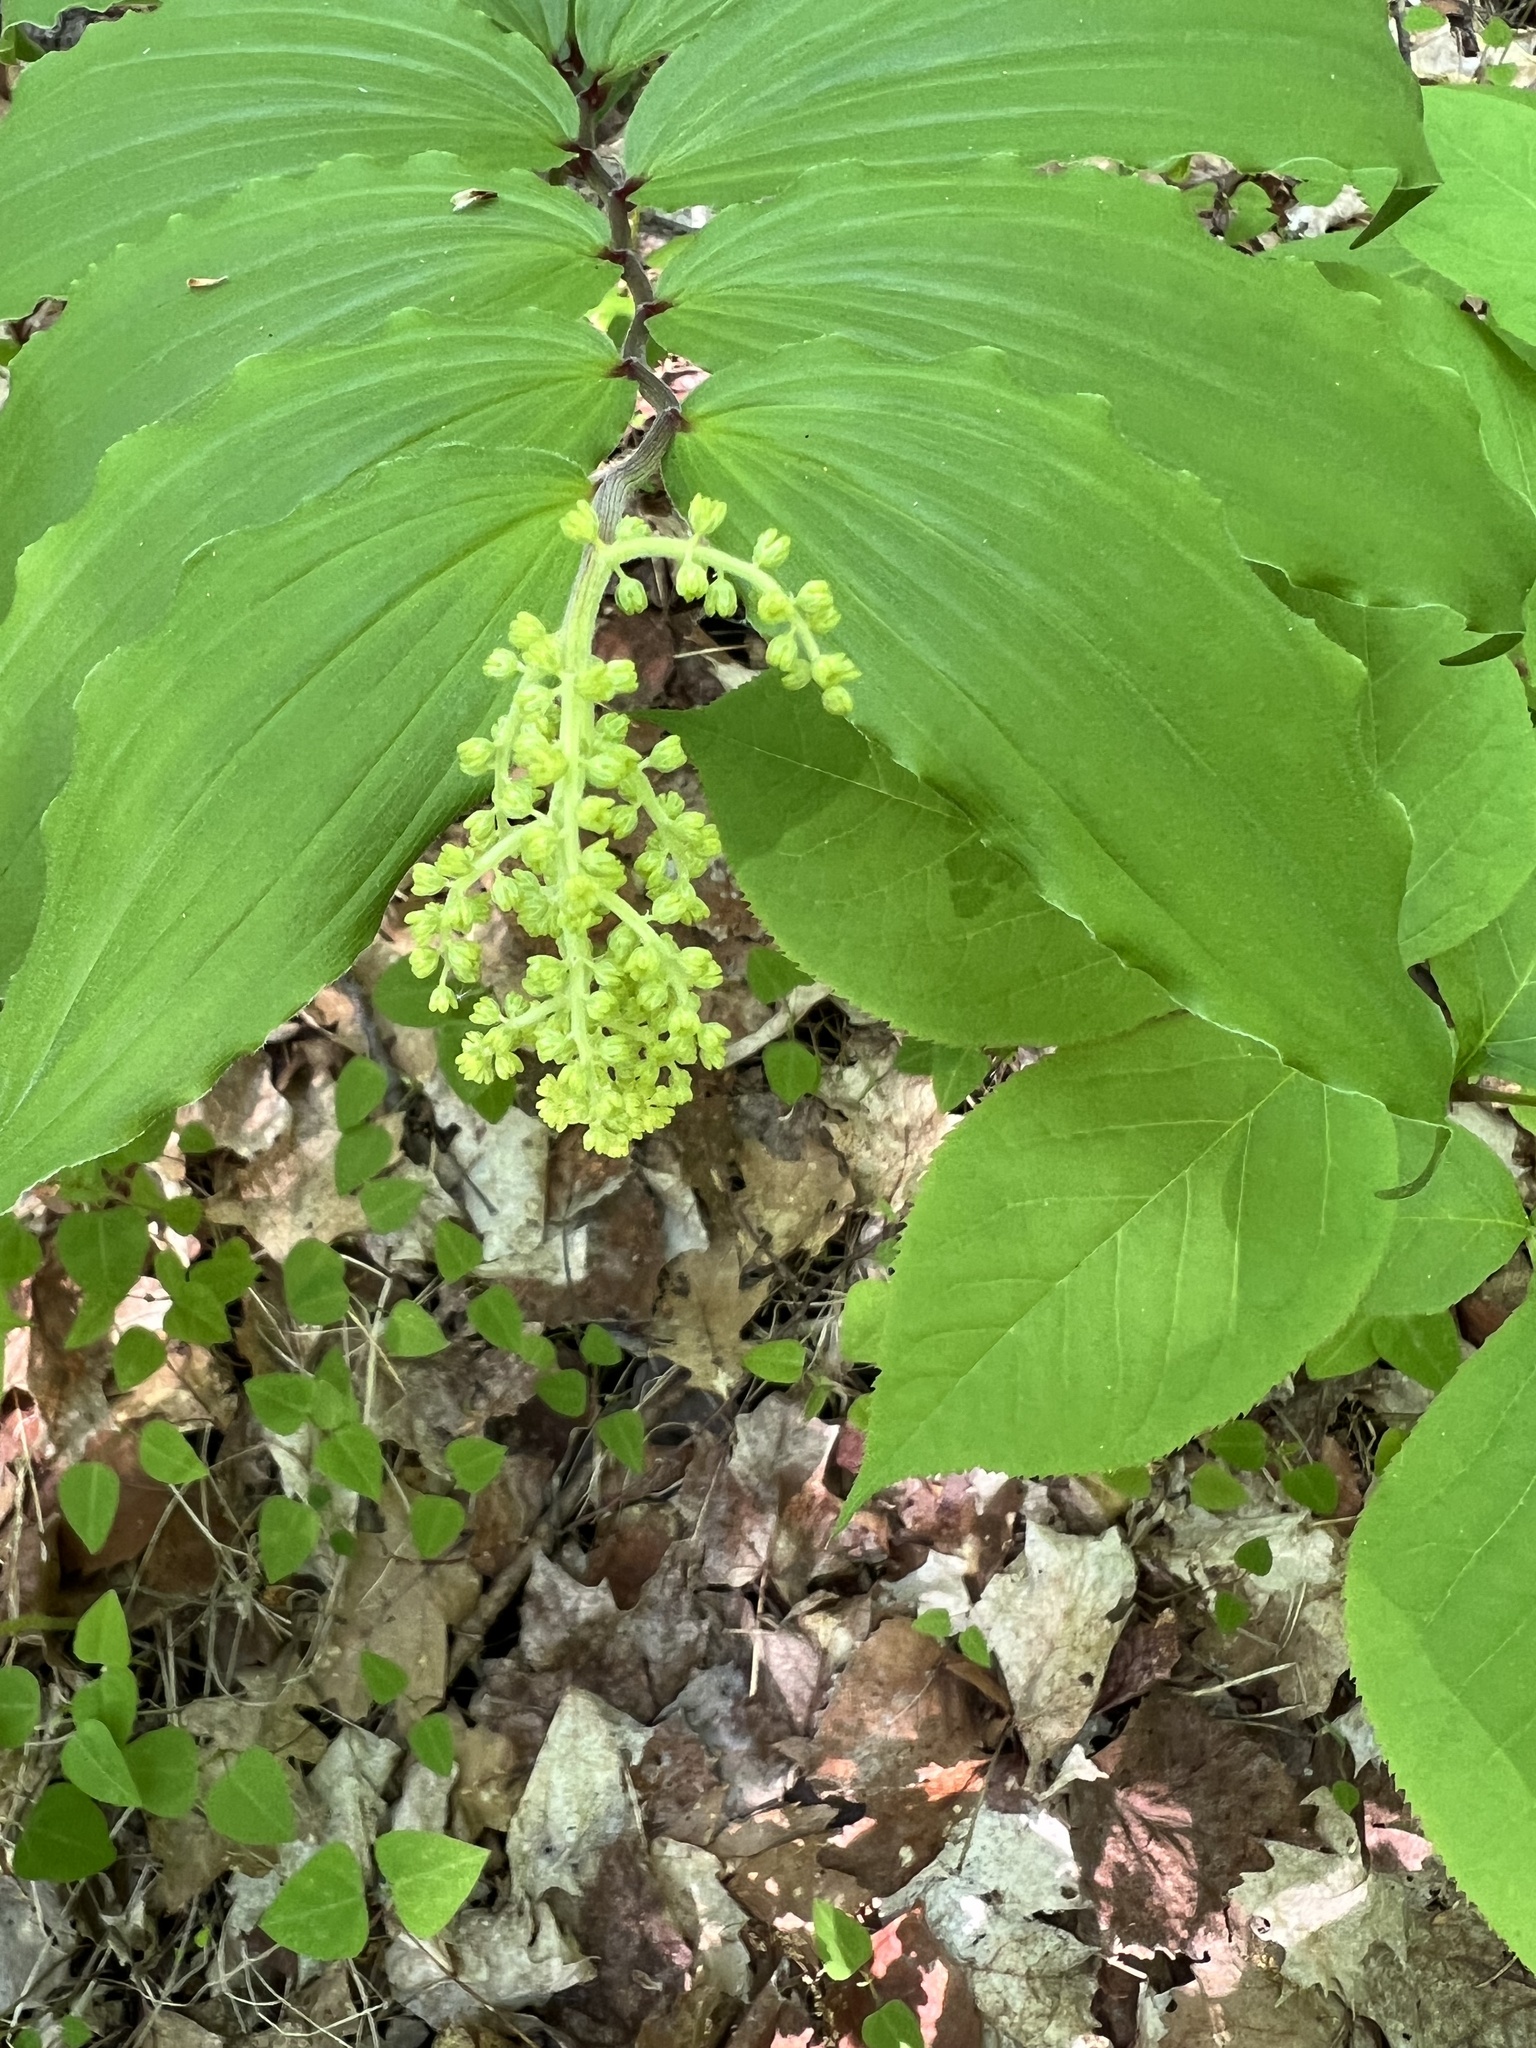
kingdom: Plantae
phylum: Tracheophyta
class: Liliopsida
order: Asparagales
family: Asparagaceae
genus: Maianthemum
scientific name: Maianthemum racemosum
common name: False spikenard
